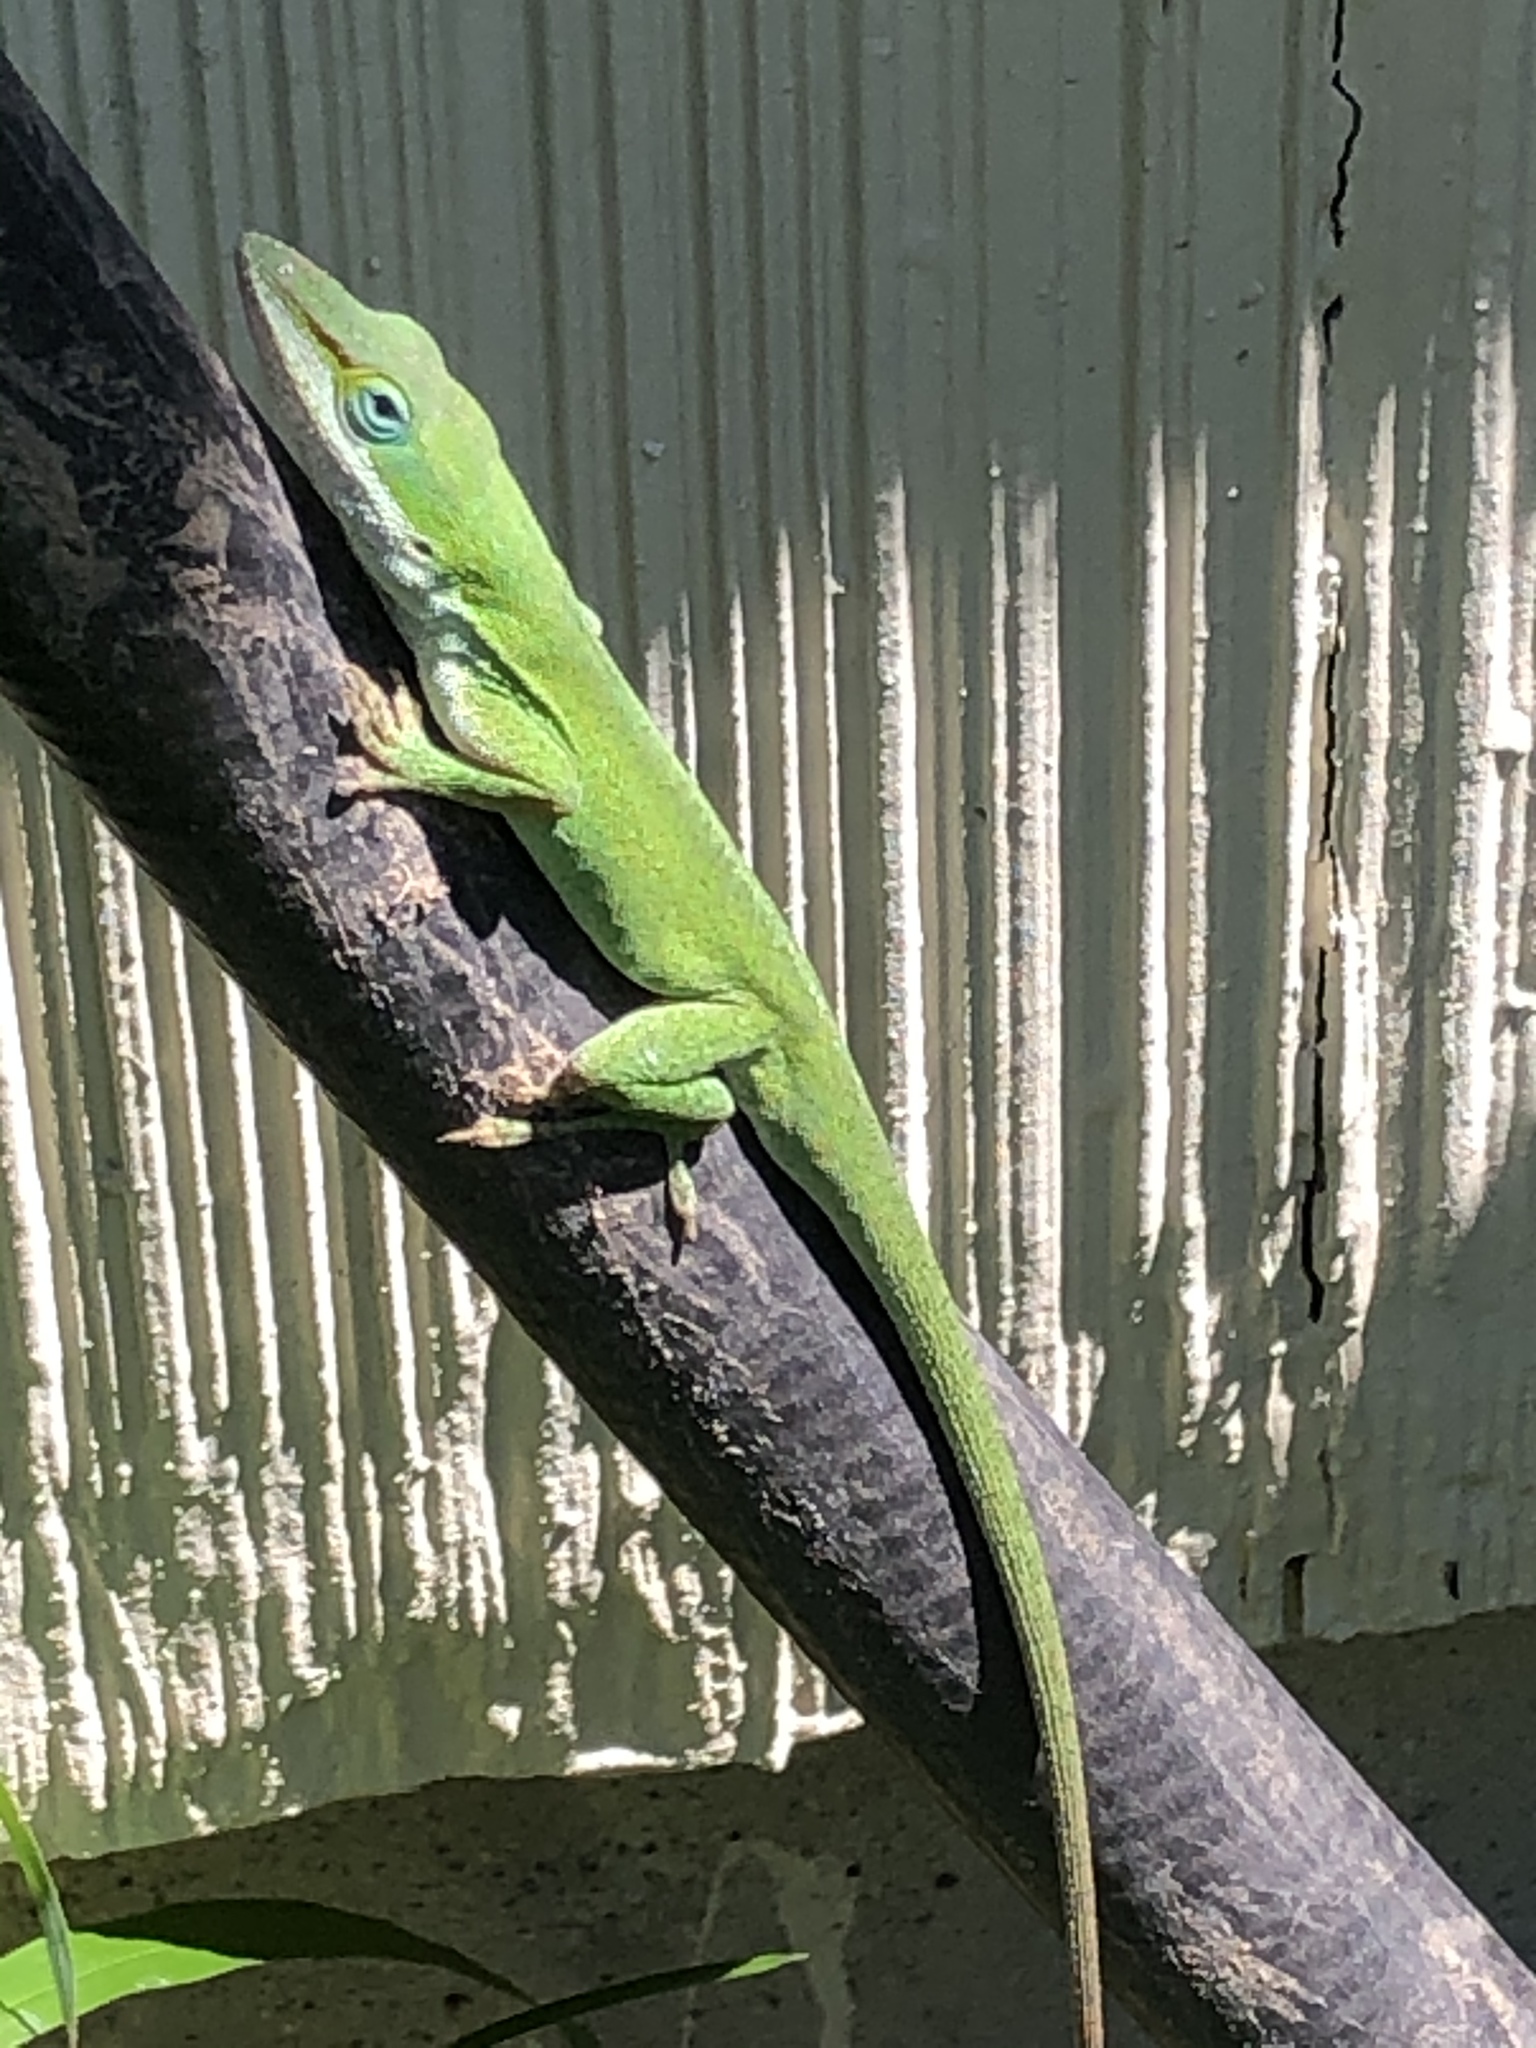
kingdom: Animalia
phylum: Chordata
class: Squamata
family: Dactyloidae
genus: Anolis
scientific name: Anolis carolinensis
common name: Green anole
